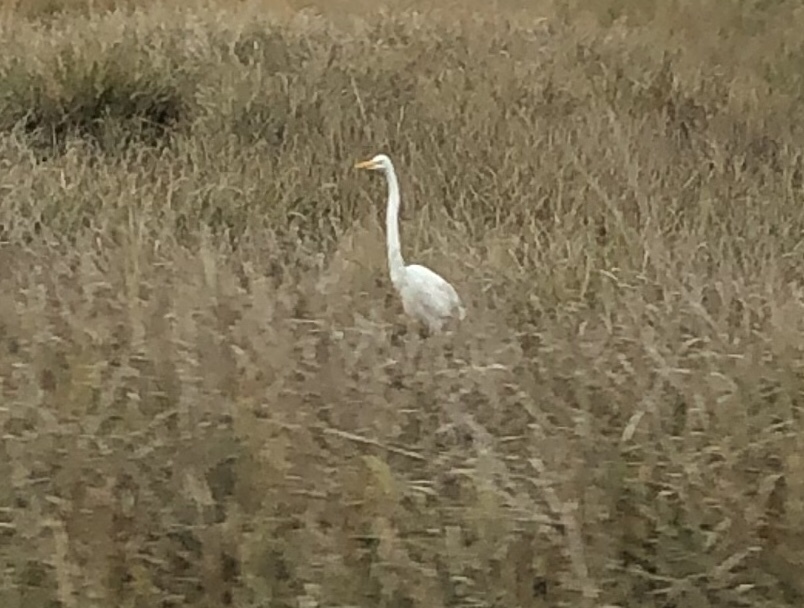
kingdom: Animalia
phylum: Chordata
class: Aves
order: Pelecaniformes
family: Ardeidae
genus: Ardea
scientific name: Ardea alba
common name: Great egret
